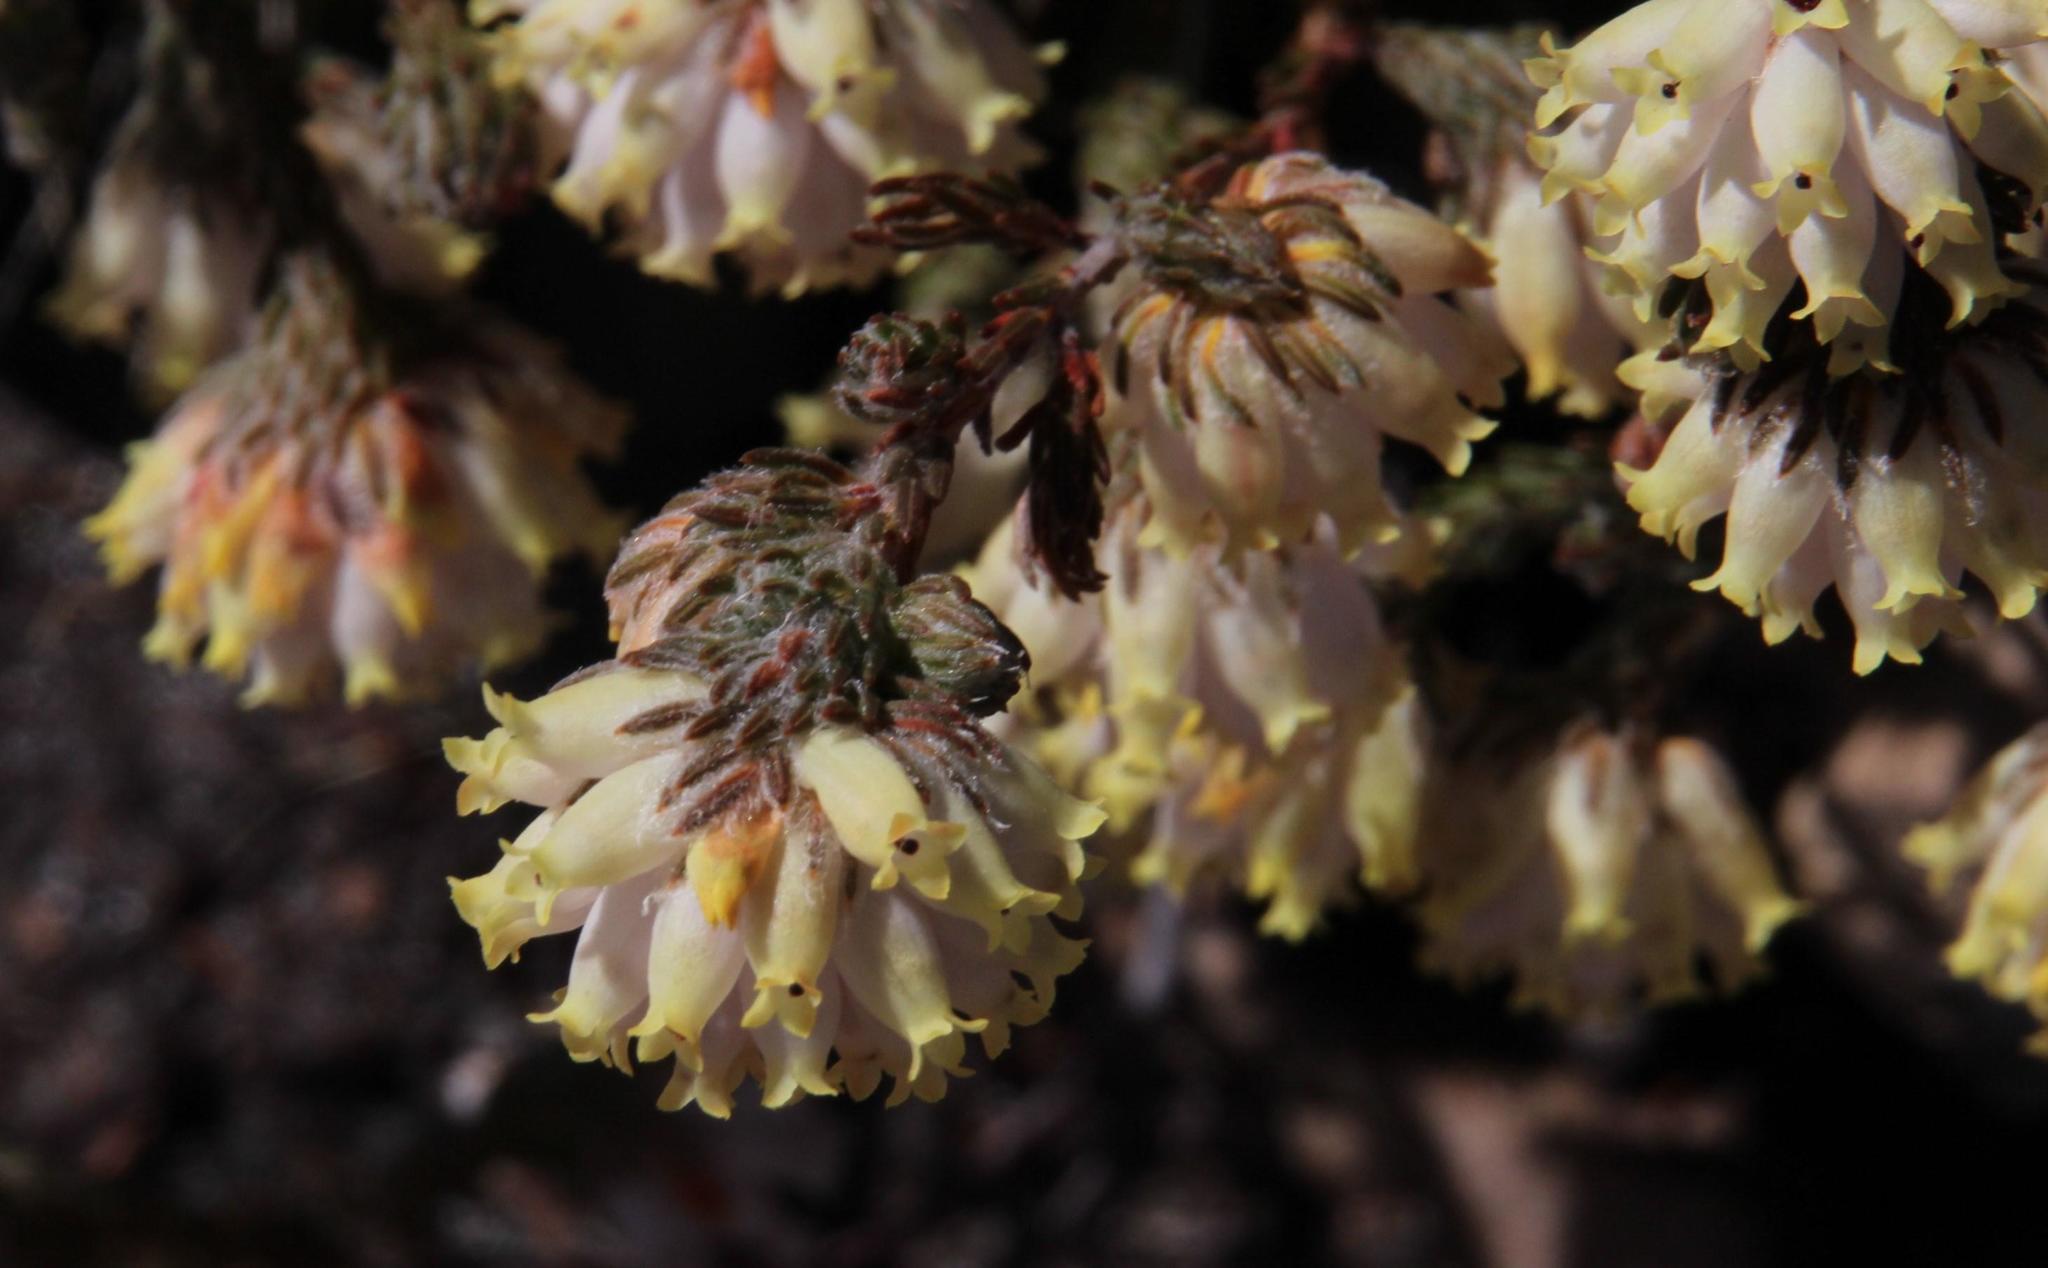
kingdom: Plantae
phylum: Tracheophyta
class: Magnoliopsida
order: Ericales
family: Ericaceae
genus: Erica
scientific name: Erica maderi
